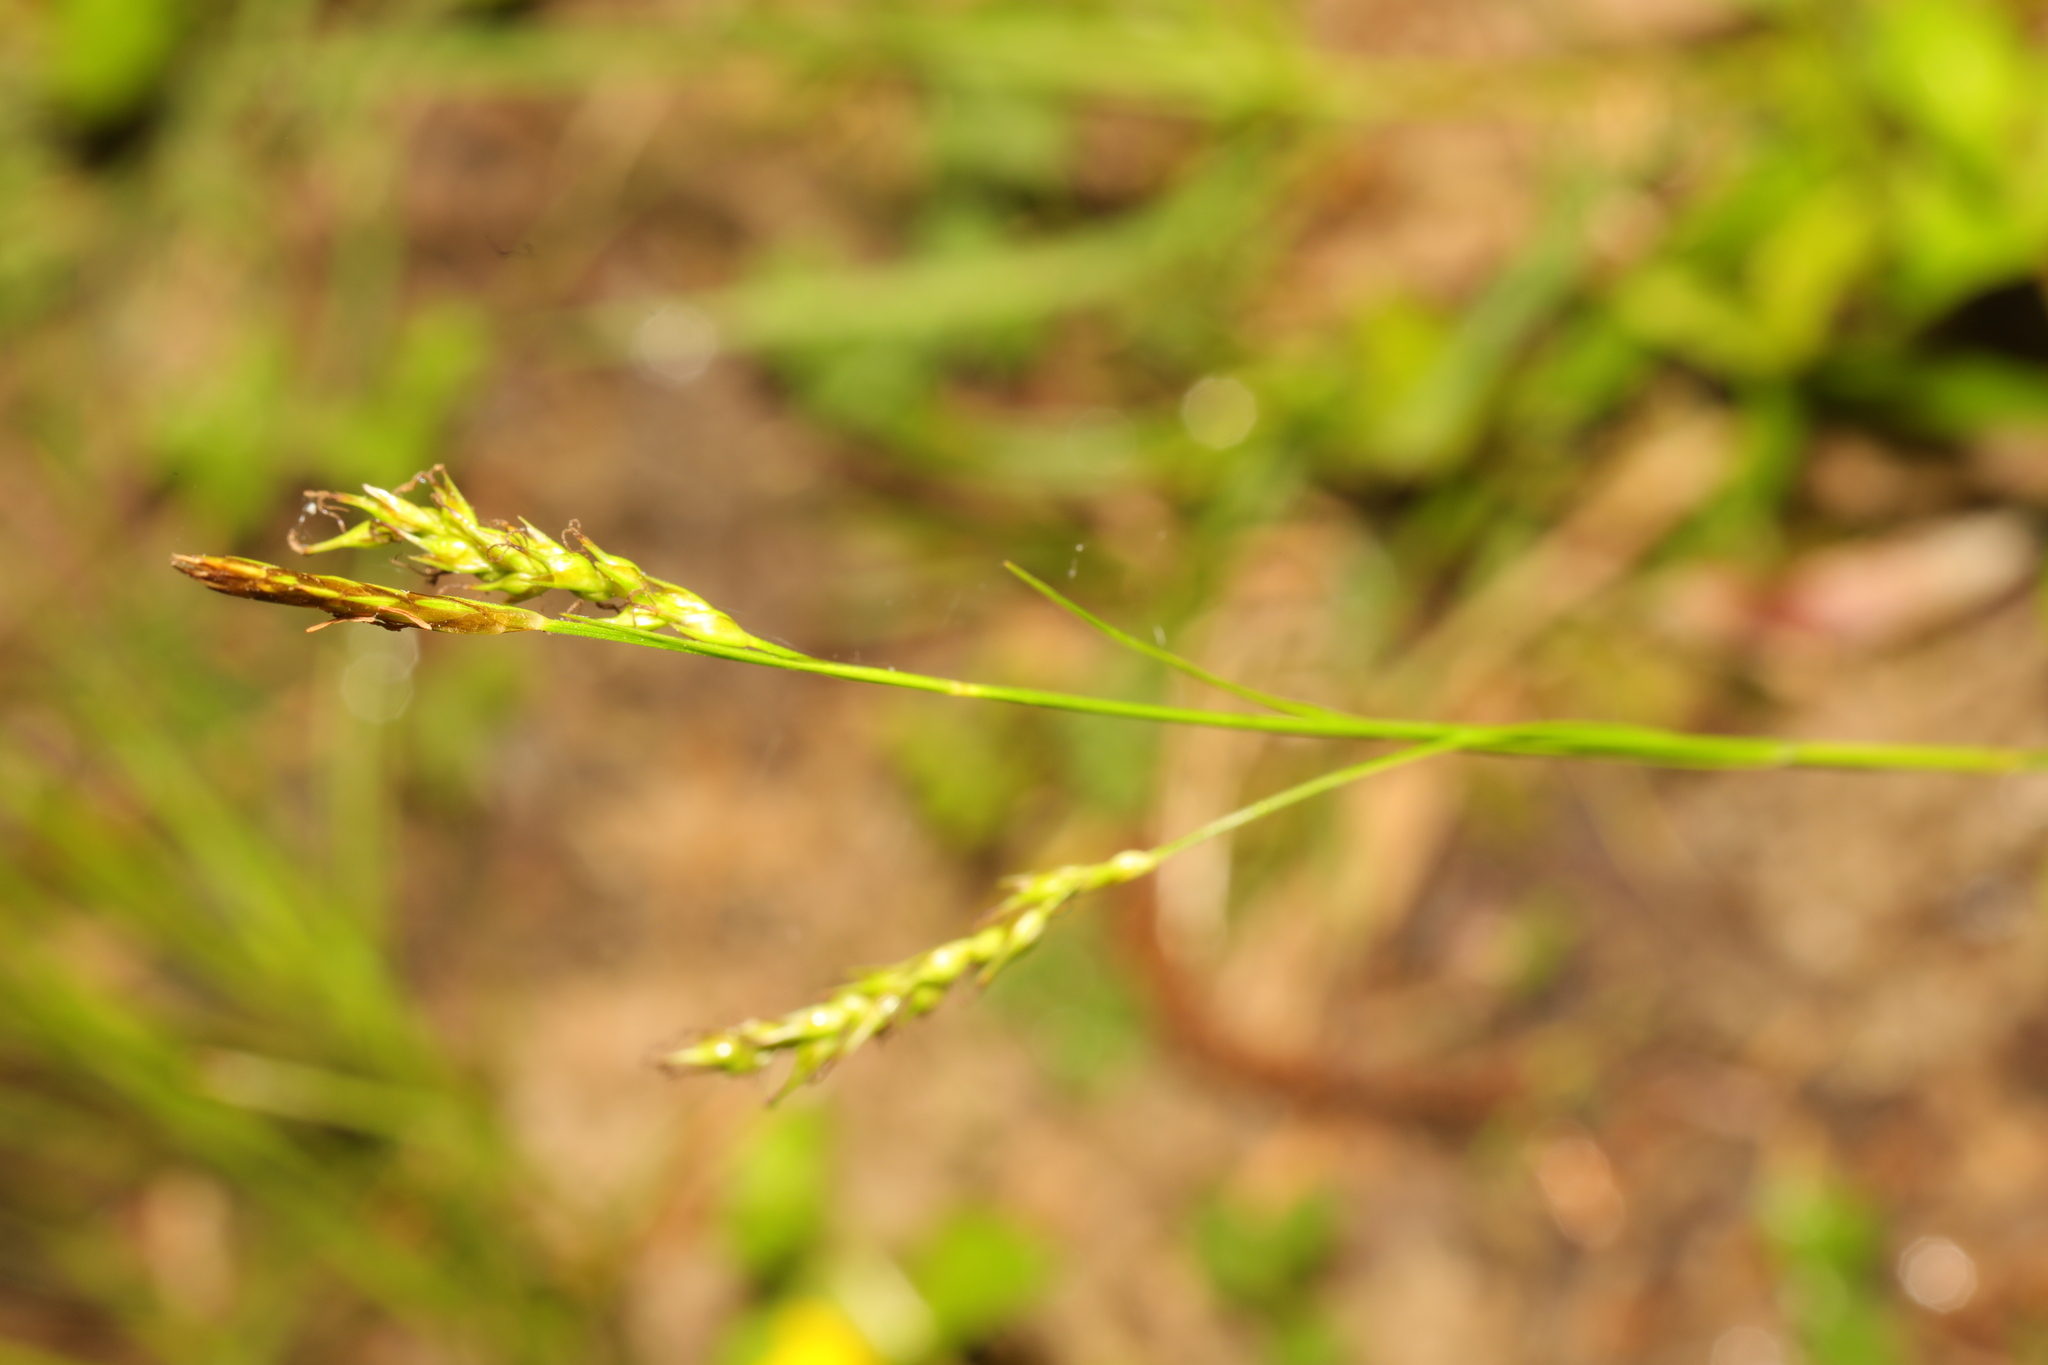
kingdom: Plantae
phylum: Tracheophyta
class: Liliopsida
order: Poales
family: Cyperaceae
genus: Carex
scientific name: Carex sylvatica
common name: Wood-sedge
